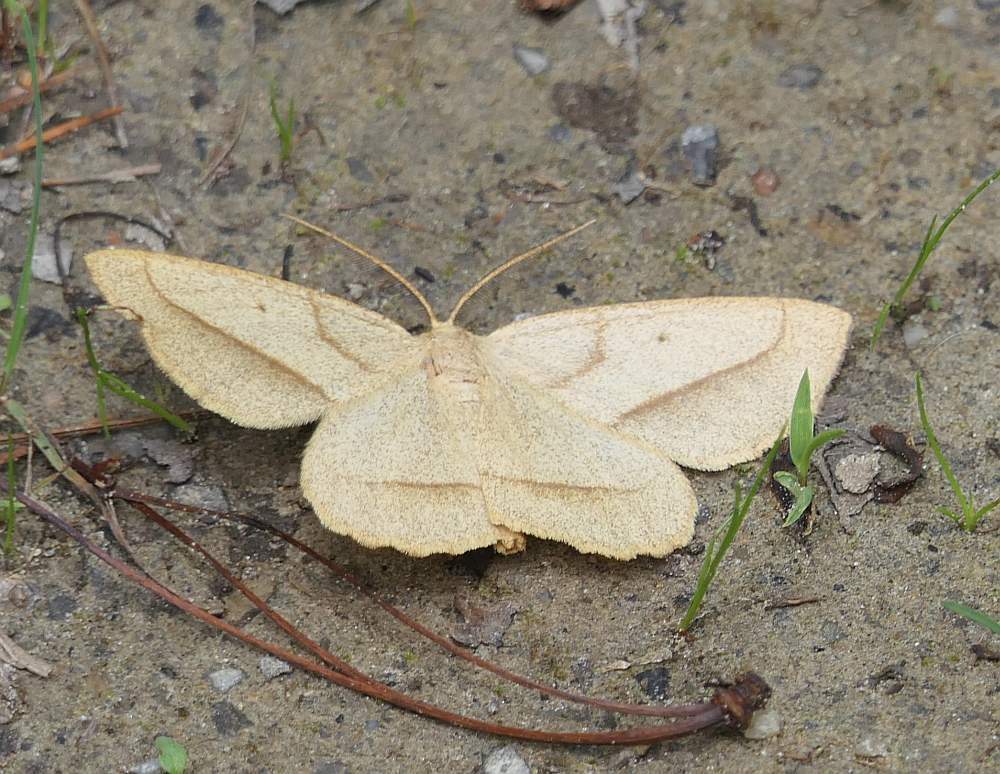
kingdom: Animalia
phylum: Arthropoda
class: Insecta
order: Lepidoptera
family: Geometridae
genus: Euchlaena
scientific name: Euchlaena irraria
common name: Least-marked euchlaena
